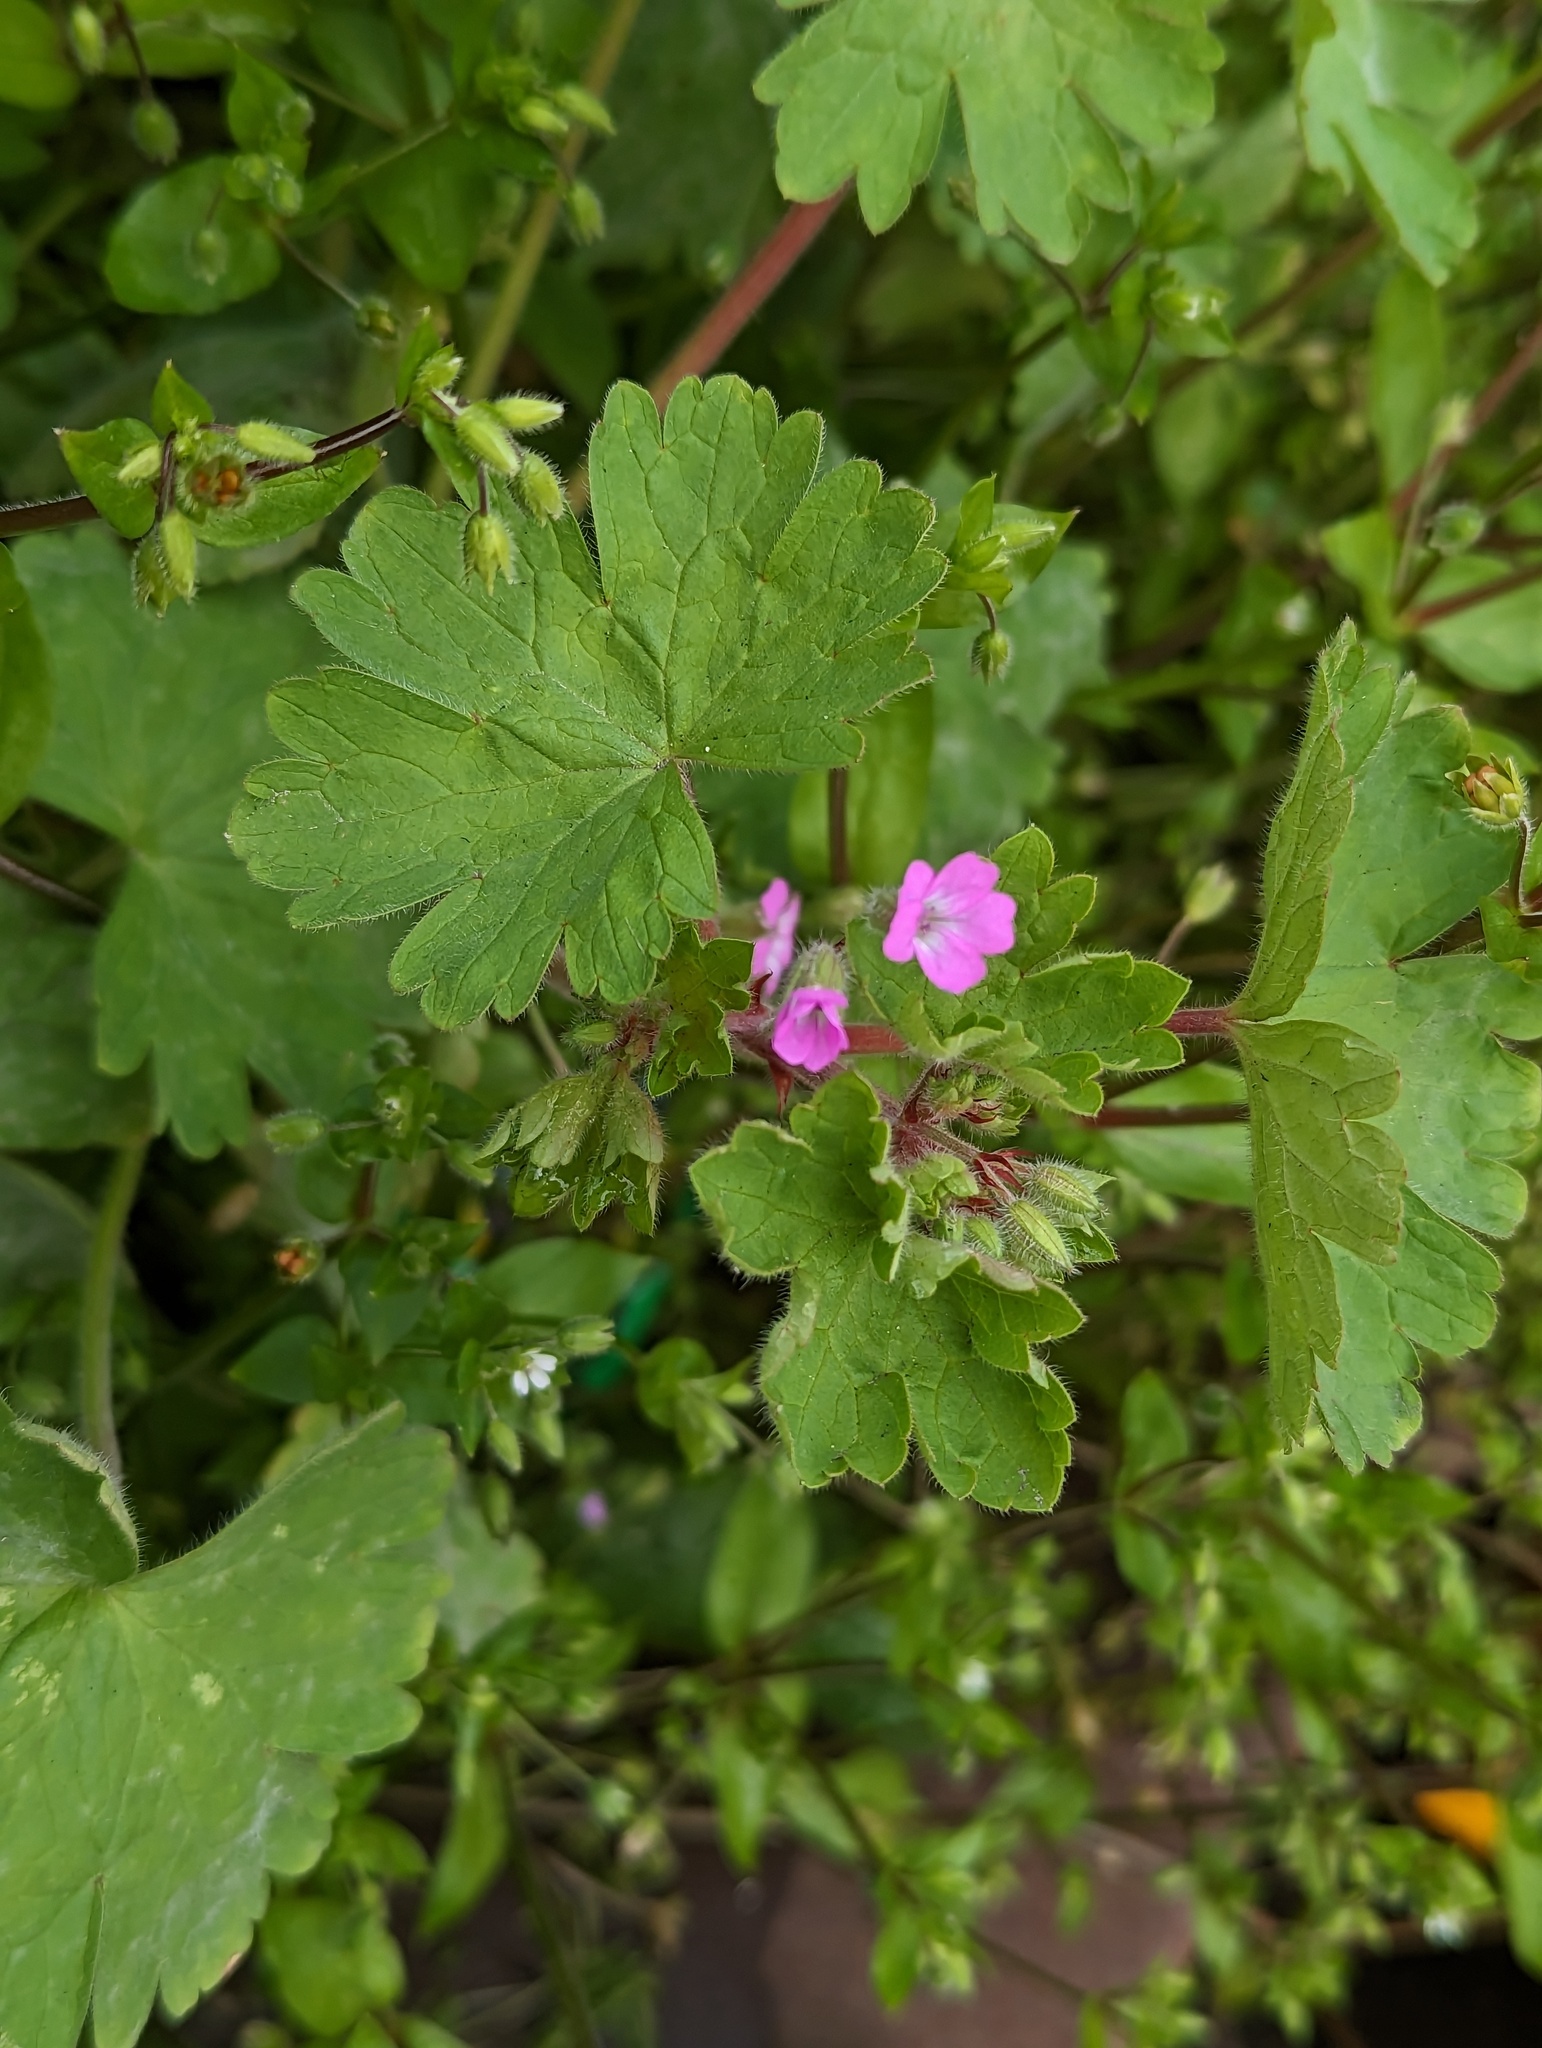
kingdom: Plantae
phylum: Tracheophyta
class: Magnoliopsida
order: Geraniales
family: Geraniaceae
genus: Geranium
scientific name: Geranium rotundifolium
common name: Round-leaved crane's-bill
